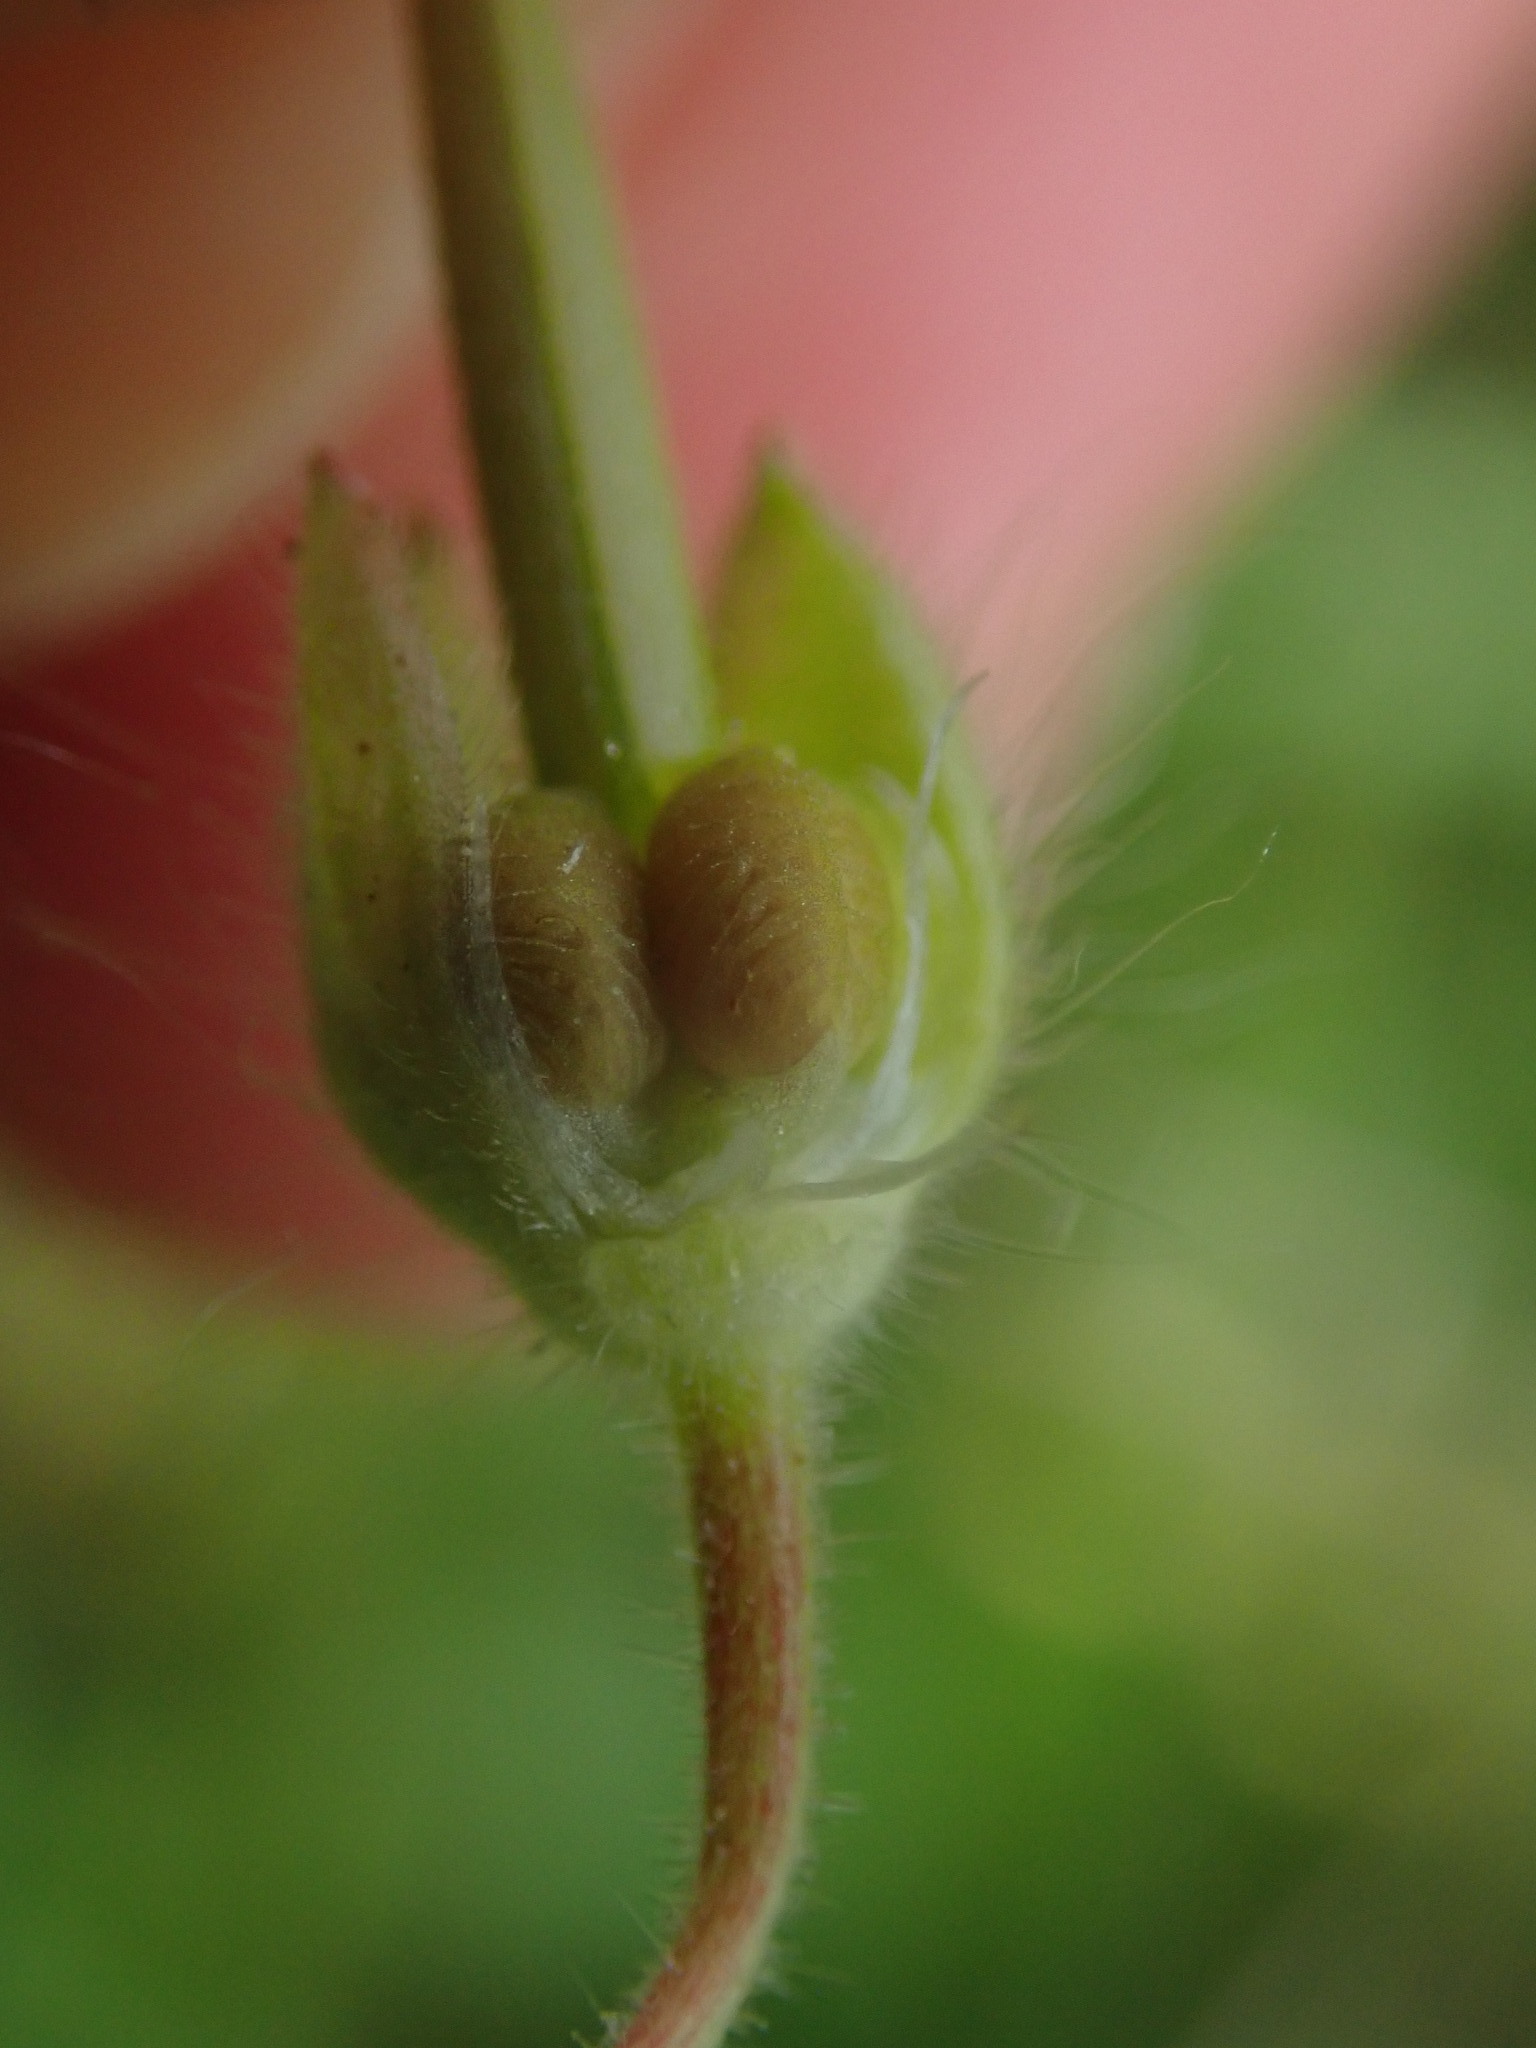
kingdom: Plantae
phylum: Tracheophyta
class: Magnoliopsida
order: Geraniales
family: Geraniaceae
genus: Geranium
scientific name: Geranium molle
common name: Dove's-foot crane's-bill
